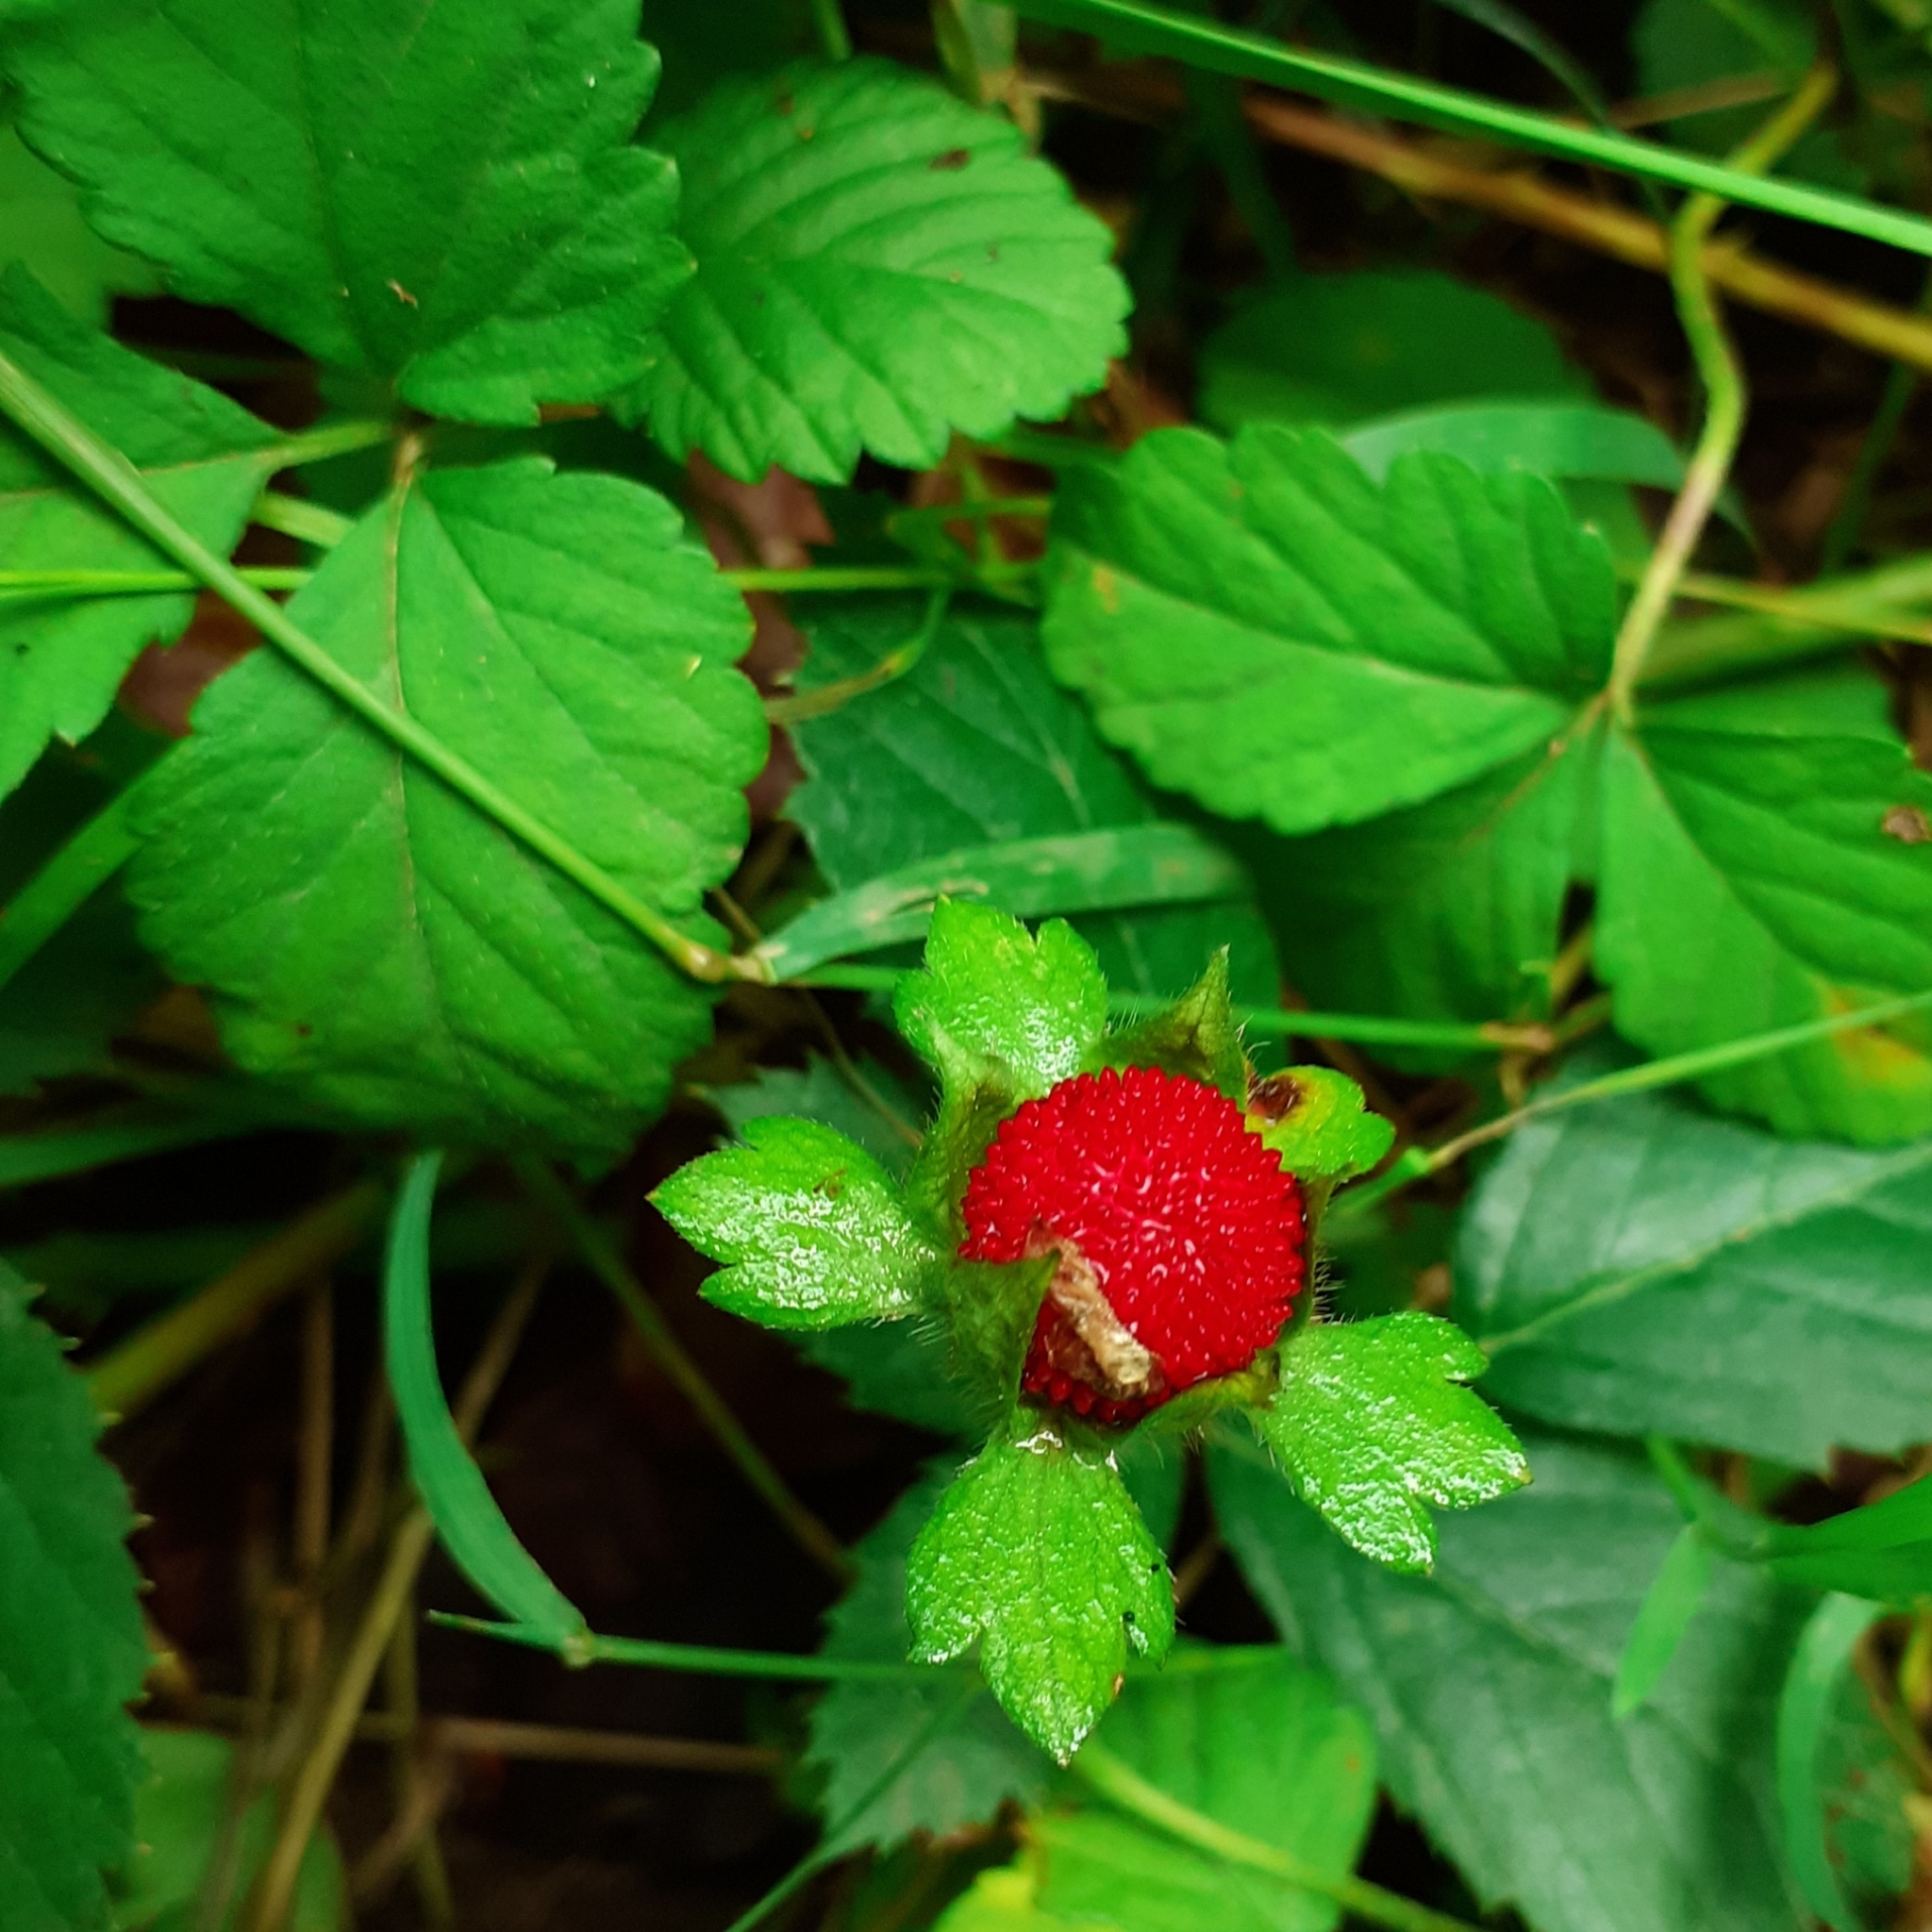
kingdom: Plantae
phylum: Tracheophyta
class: Magnoliopsida
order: Rosales
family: Rosaceae
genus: Potentilla
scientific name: Potentilla indica
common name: Yellow-flowered strawberry
